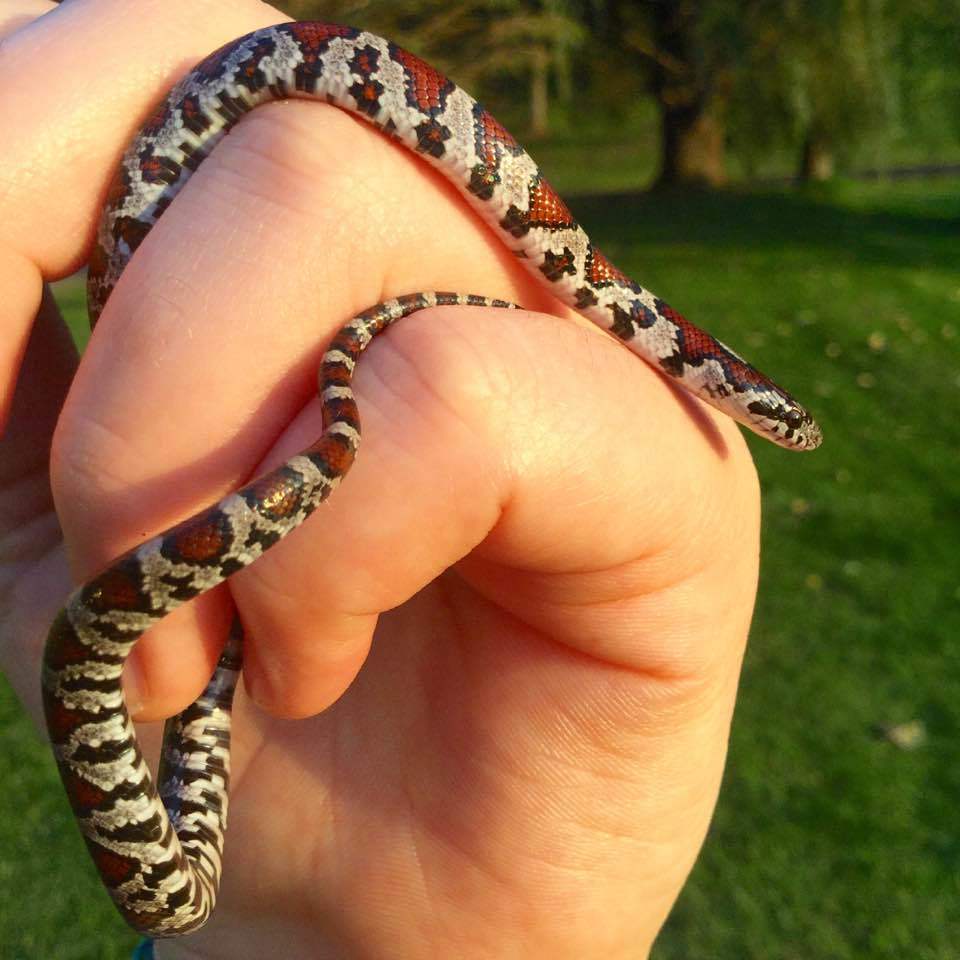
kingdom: Animalia
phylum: Chordata
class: Squamata
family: Colubridae
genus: Lampropeltis
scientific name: Lampropeltis triangulum
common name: Eastern milksnake
